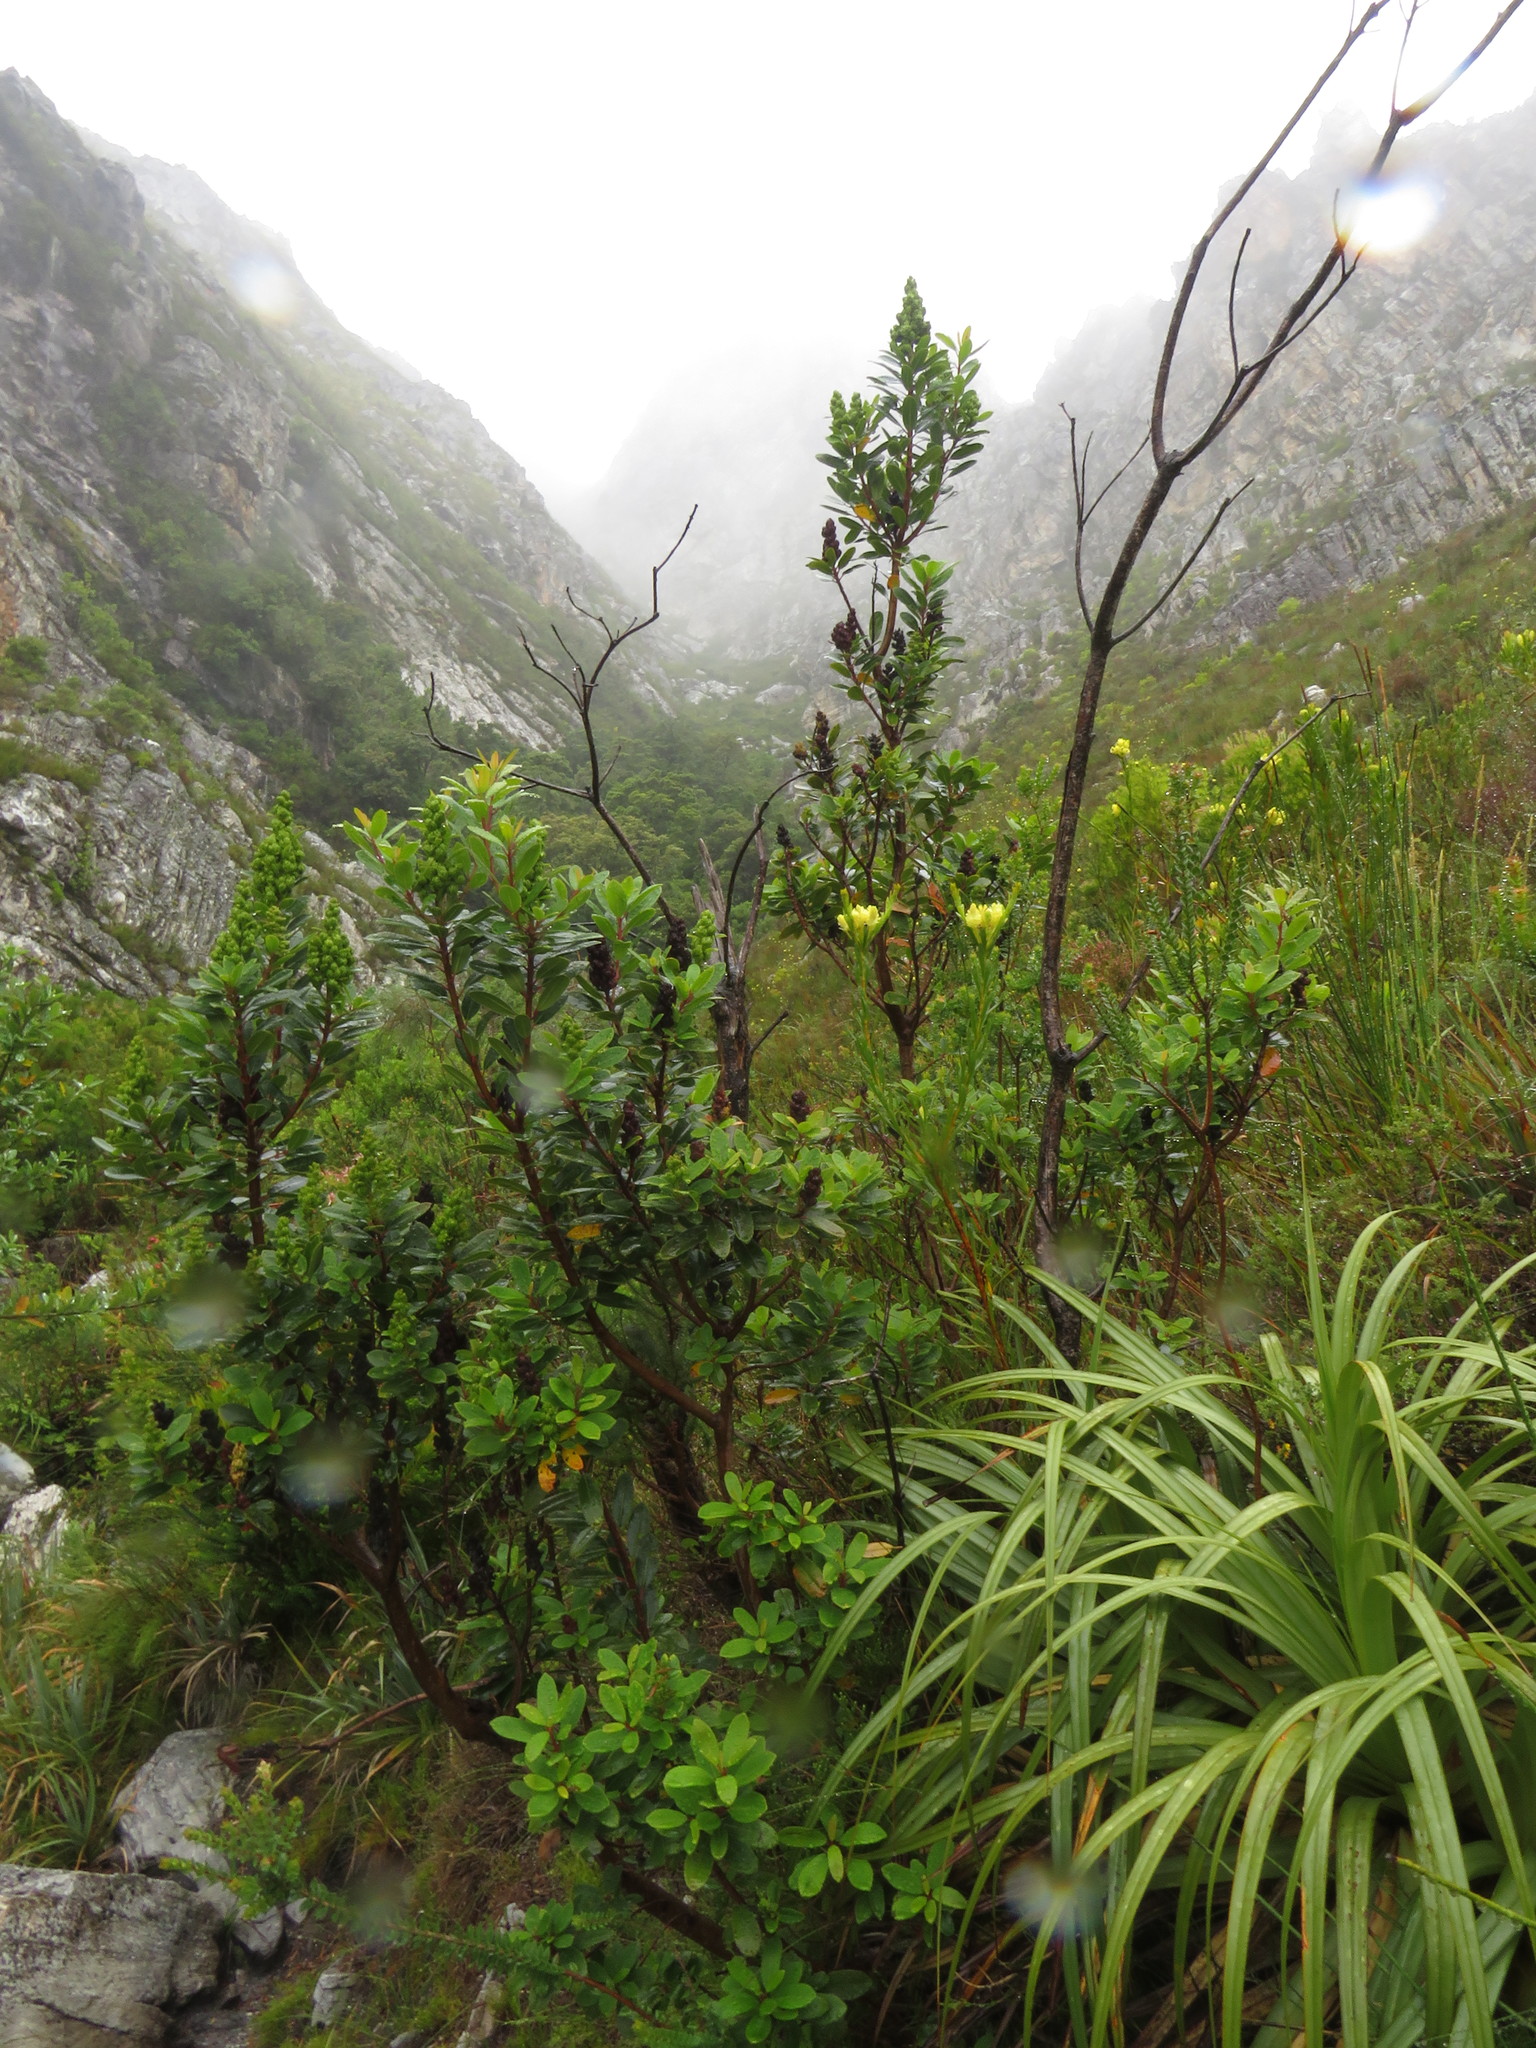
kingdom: Plantae
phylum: Tracheophyta
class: Magnoliopsida
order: Sapindales
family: Anacardiaceae
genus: Laurophyllus
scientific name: Laurophyllus capensis
